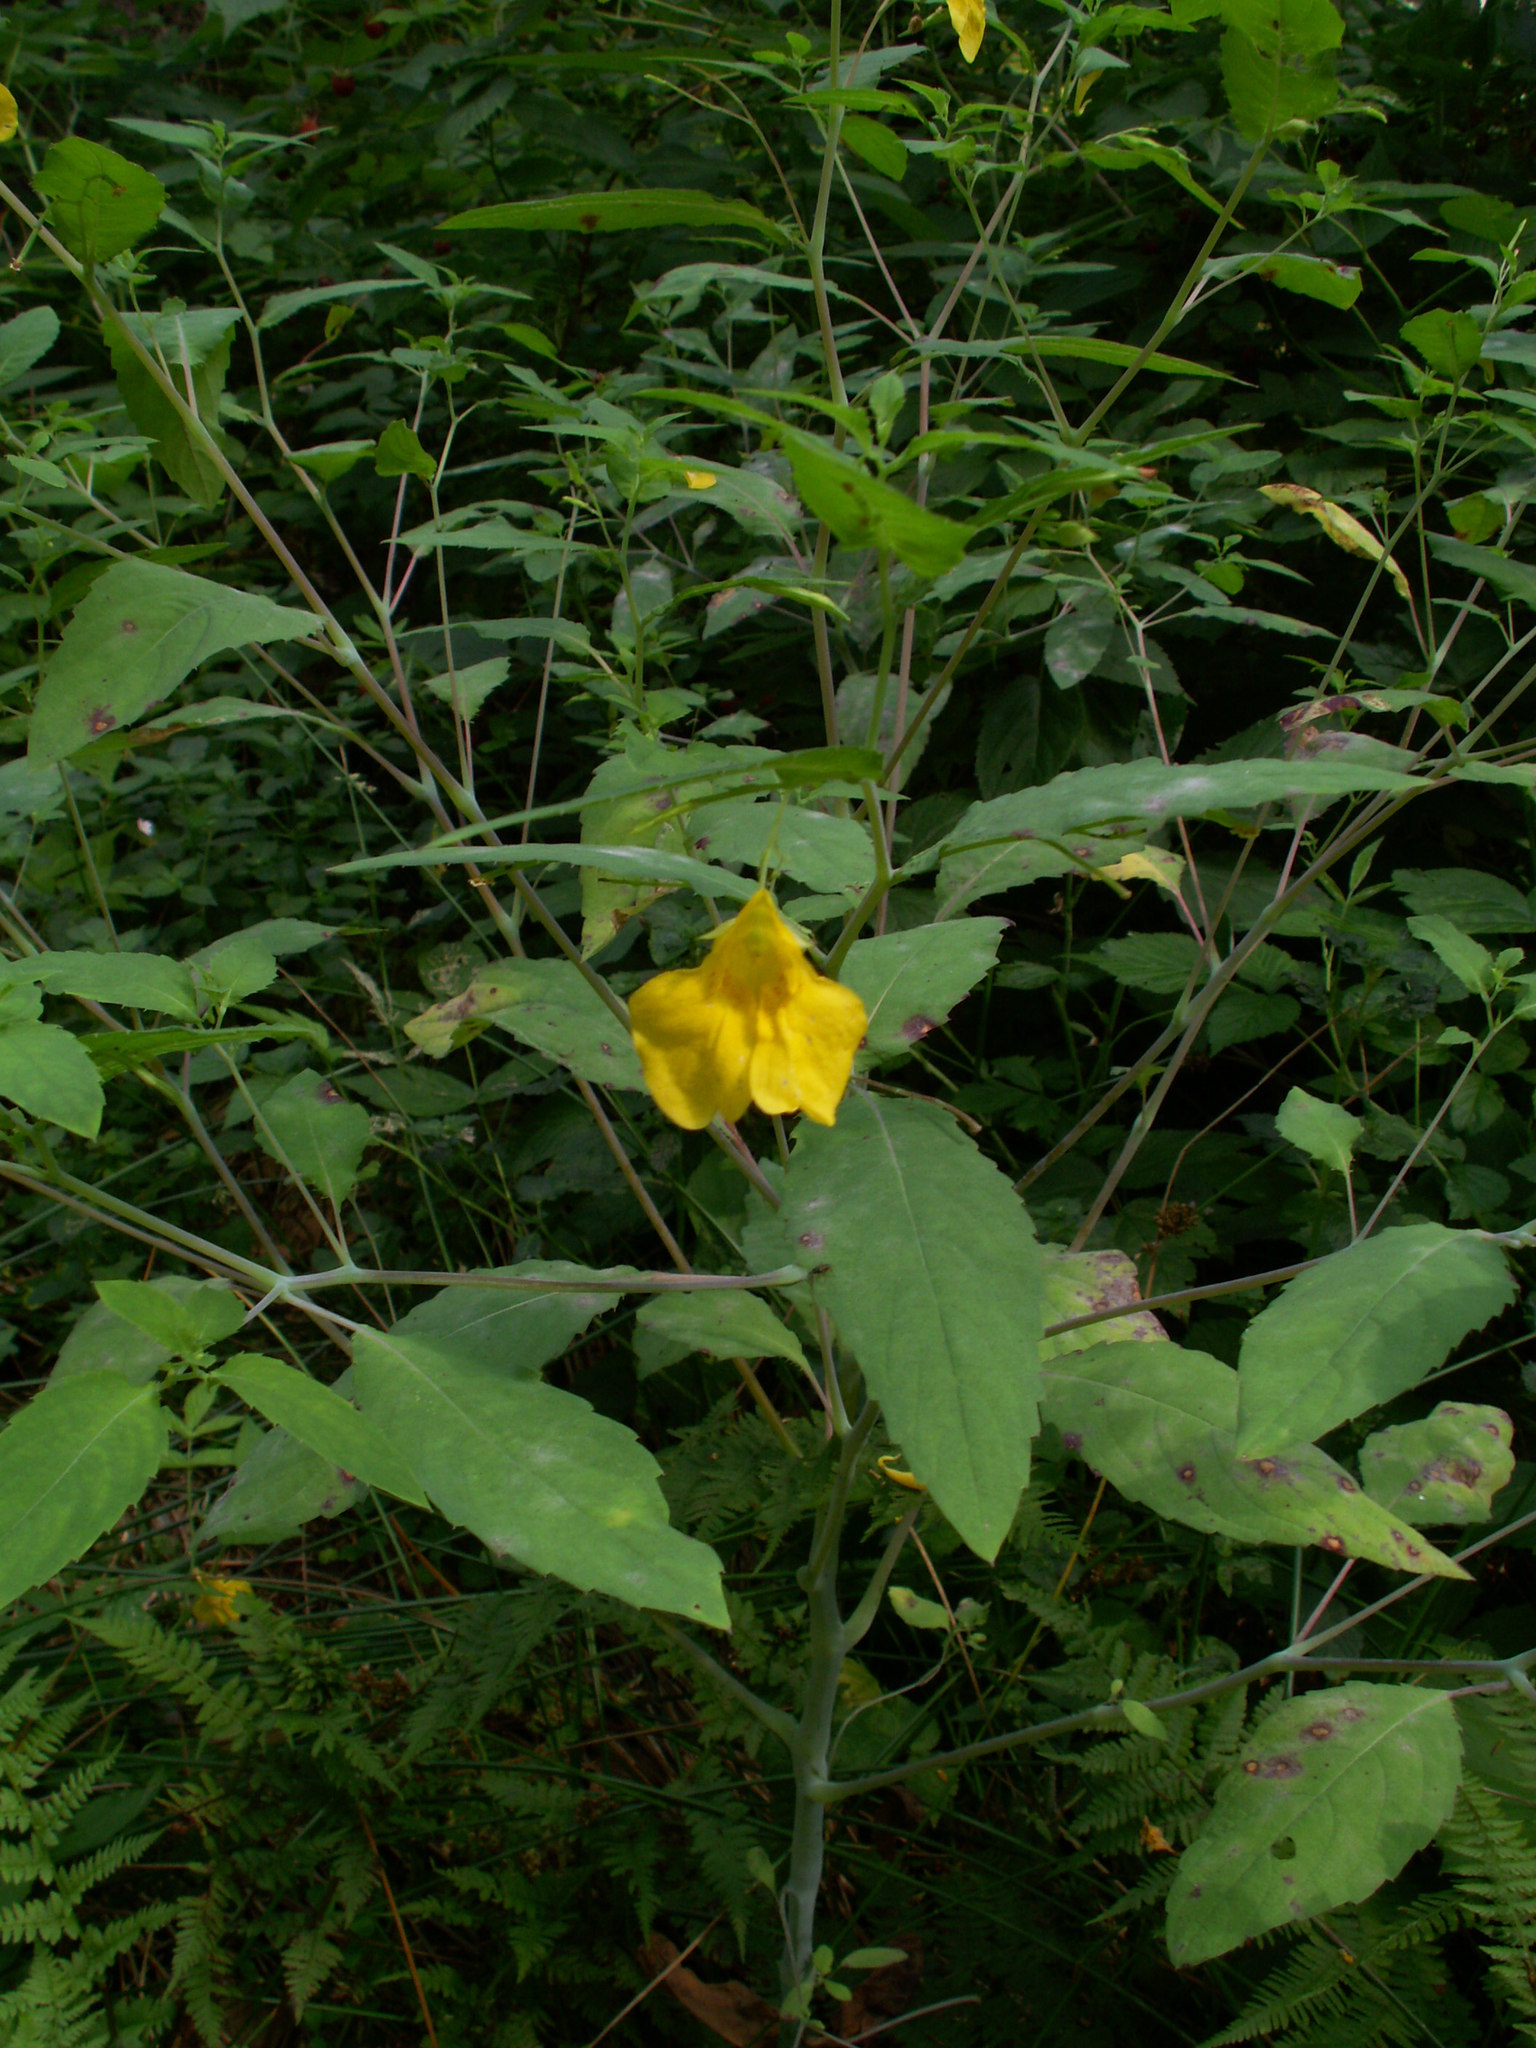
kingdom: Plantae
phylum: Tracheophyta
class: Magnoliopsida
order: Ericales
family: Balsaminaceae
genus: Impatiens
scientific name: Impatiens noli-tangere
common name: Touch-me-not balsam
